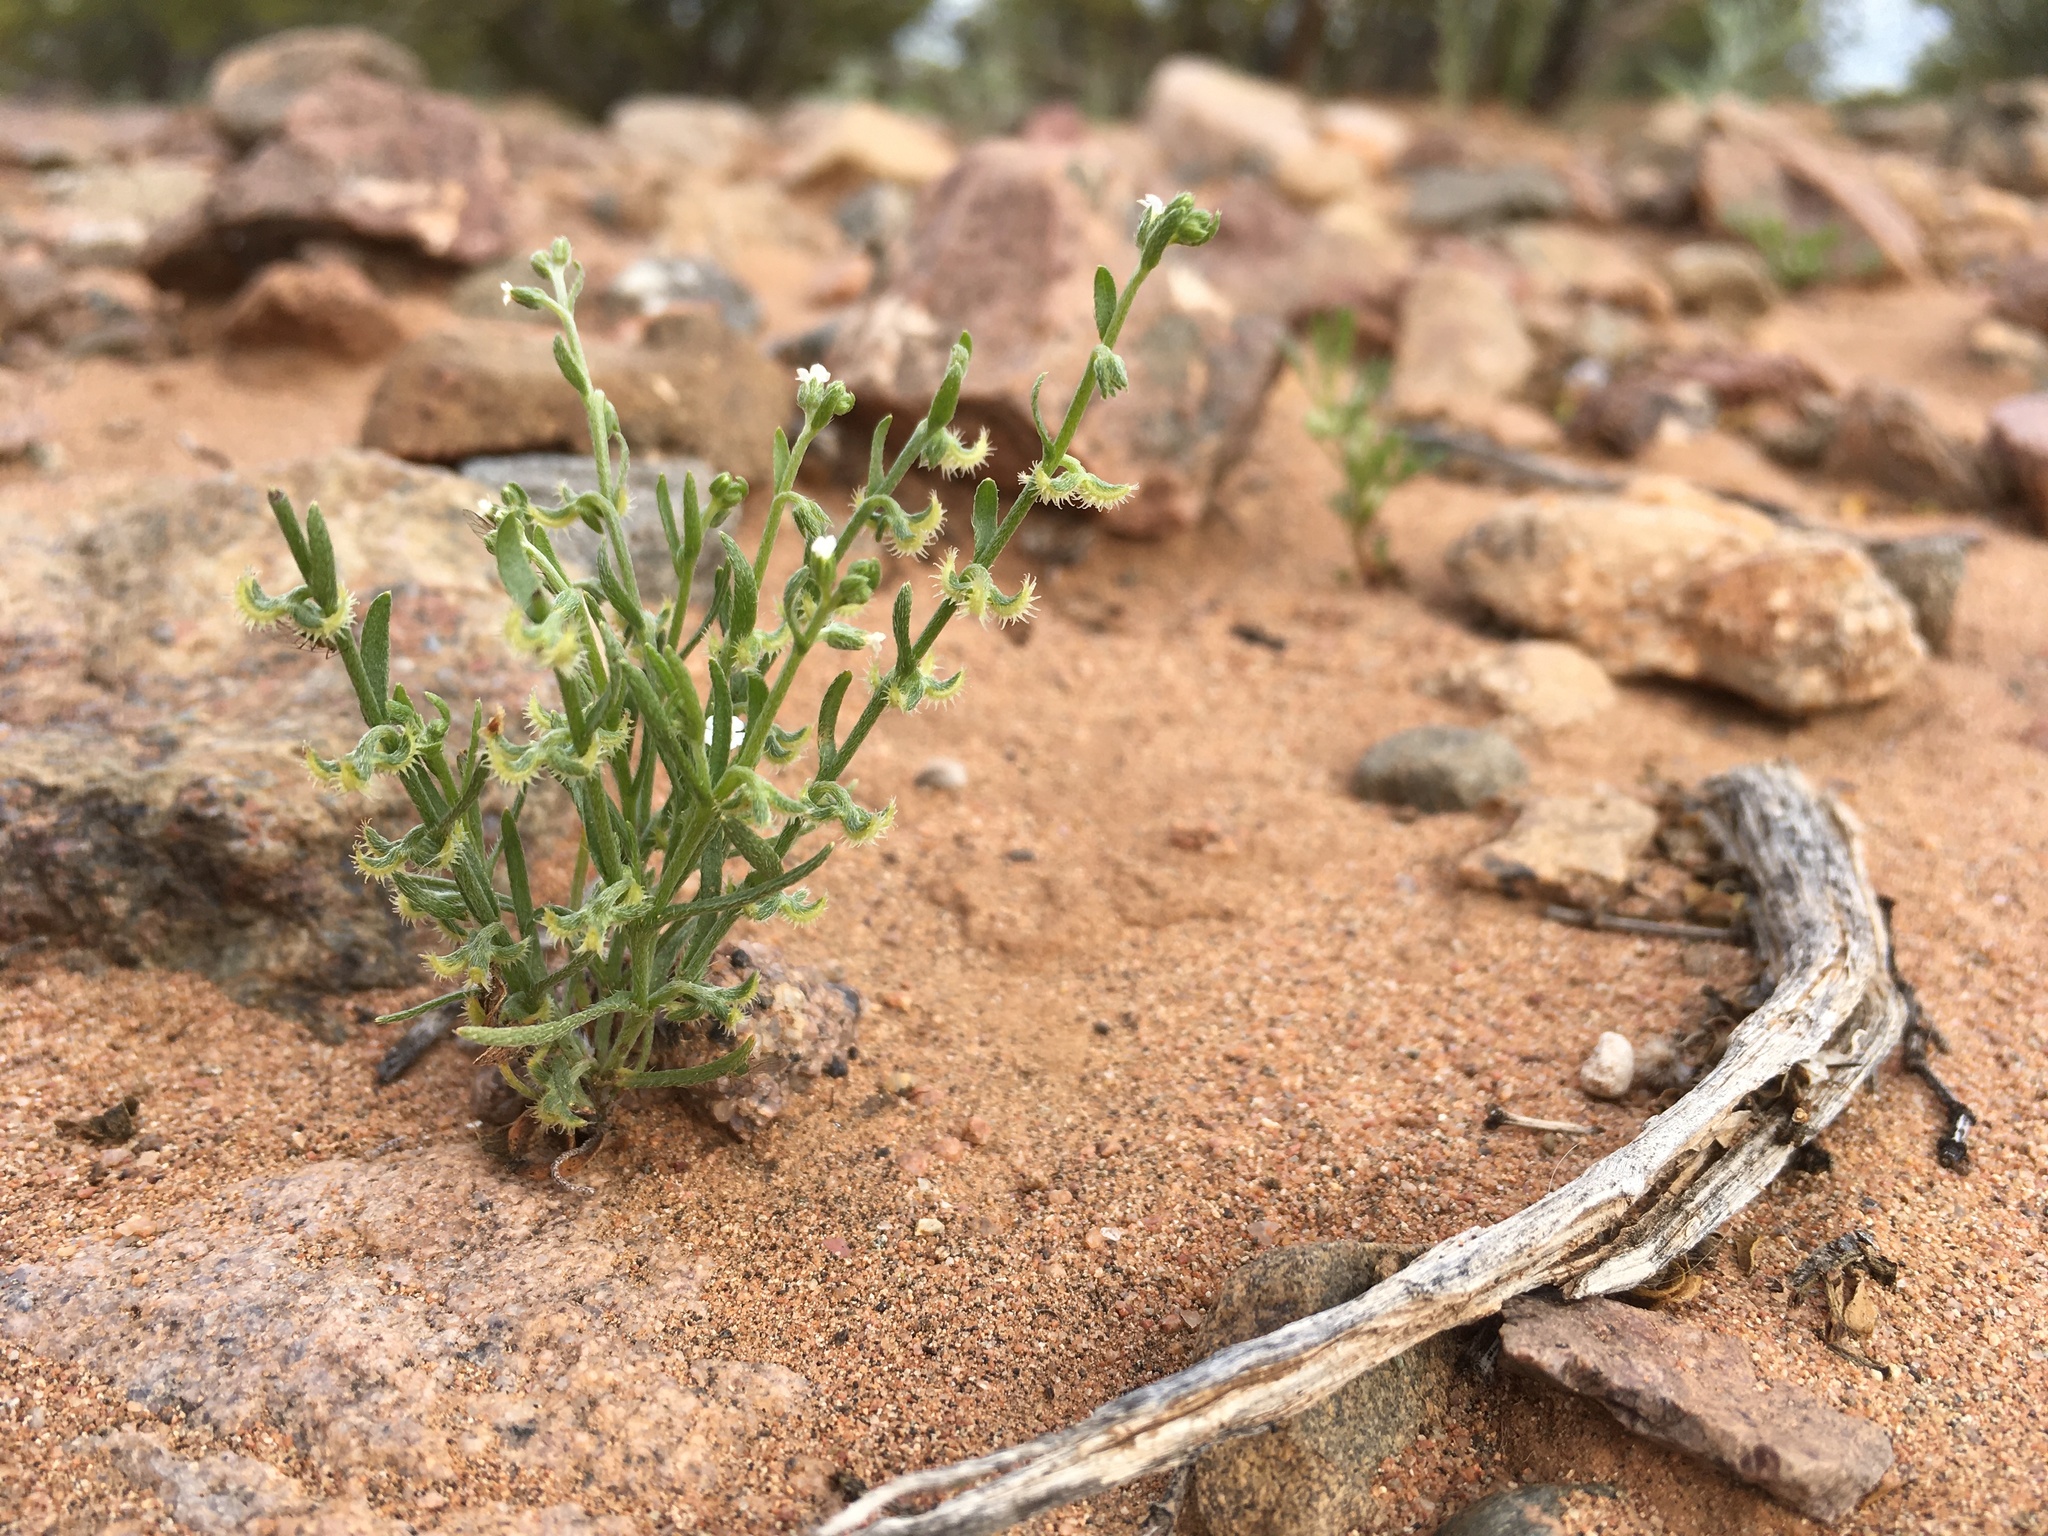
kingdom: Plantae
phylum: Tracheophyta
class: Magnoliopsida
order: Boraginales
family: Boraginaceae
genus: Pectocarya
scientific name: Pectocarya recurvata
